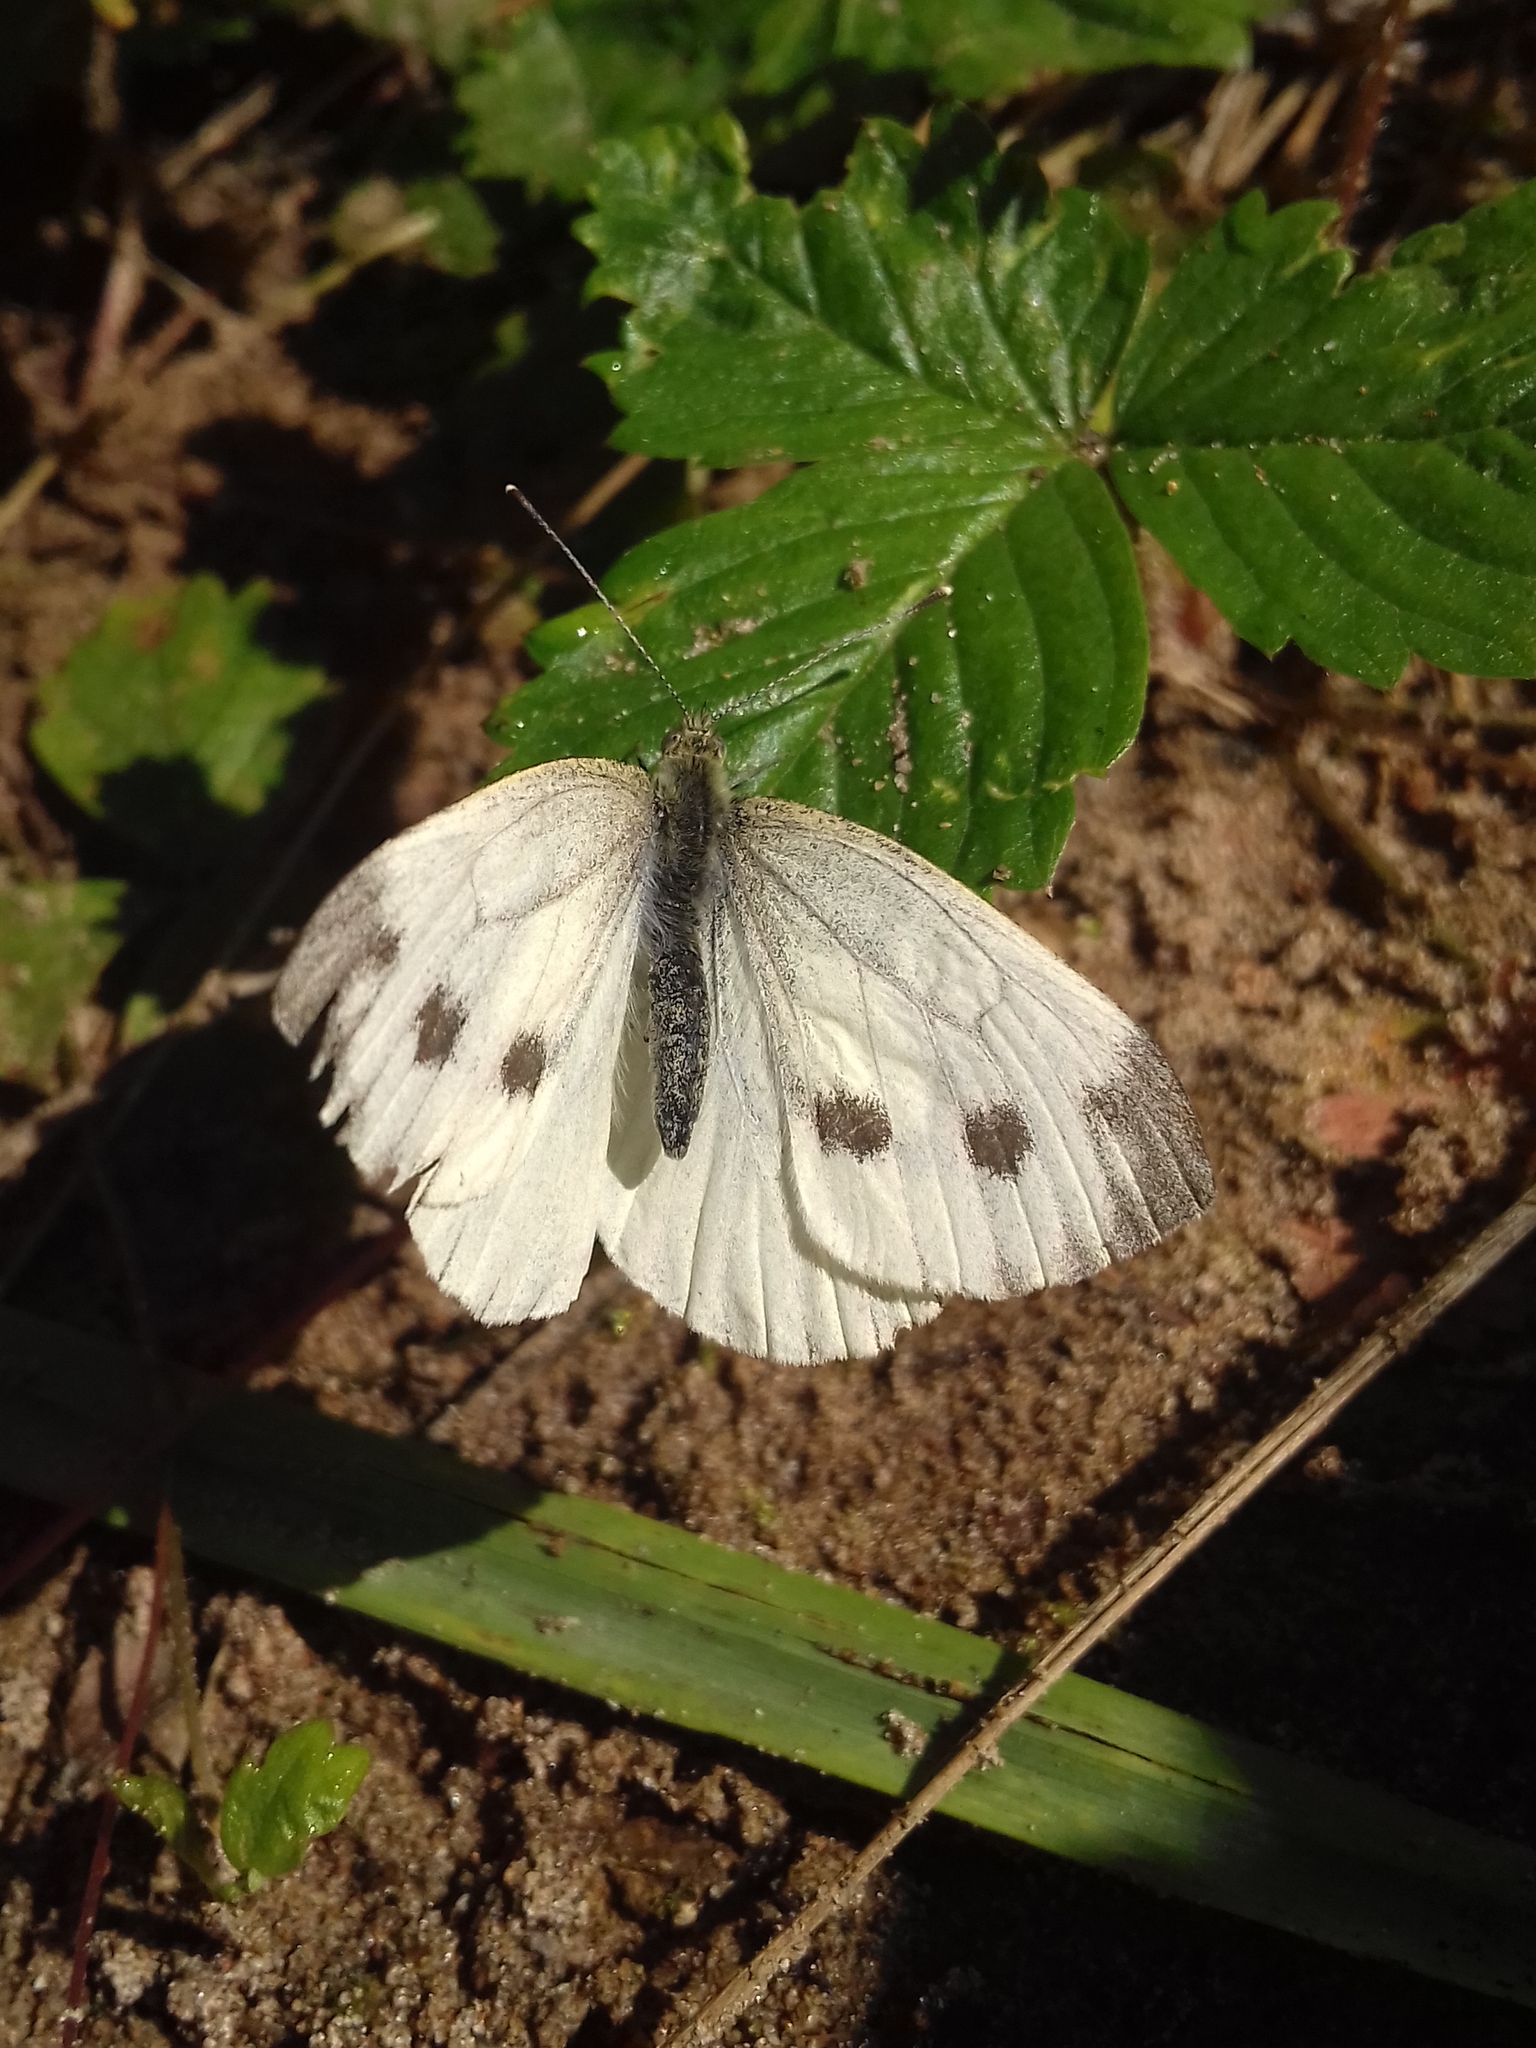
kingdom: Animalia
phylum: Arthropoda
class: Insecta
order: Lepidoptera
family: Pieridae
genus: Pieris
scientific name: Pieris napi
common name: Green-veined white
